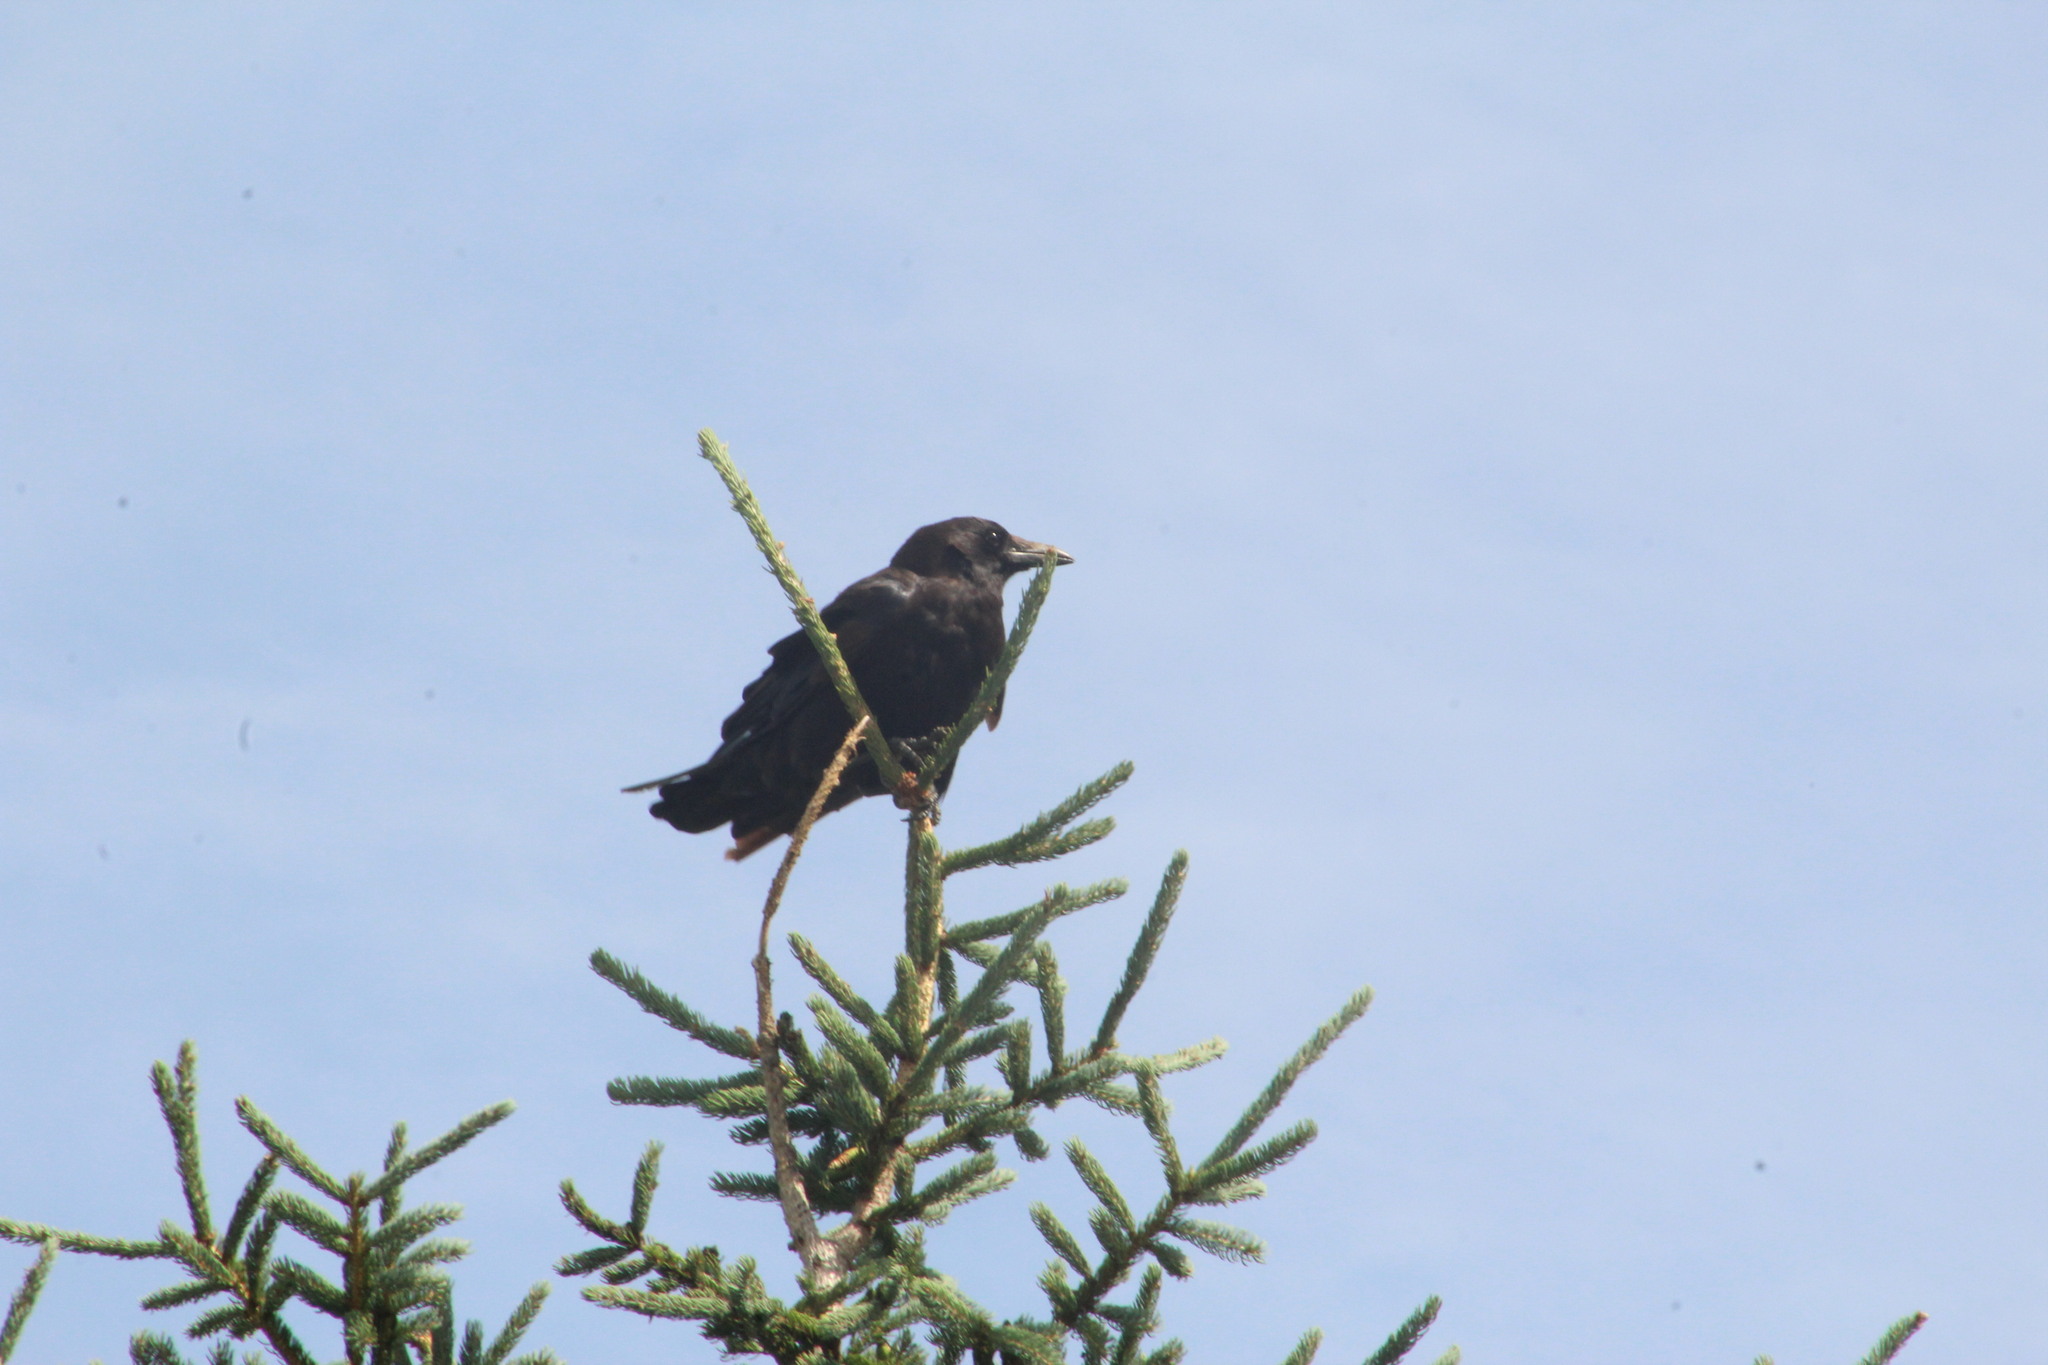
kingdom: Animalia
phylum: Chordata
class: Aves
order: Passeriformes
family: Corvidae
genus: Corvus
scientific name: Corvus brachyrhynchos
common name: American crow
